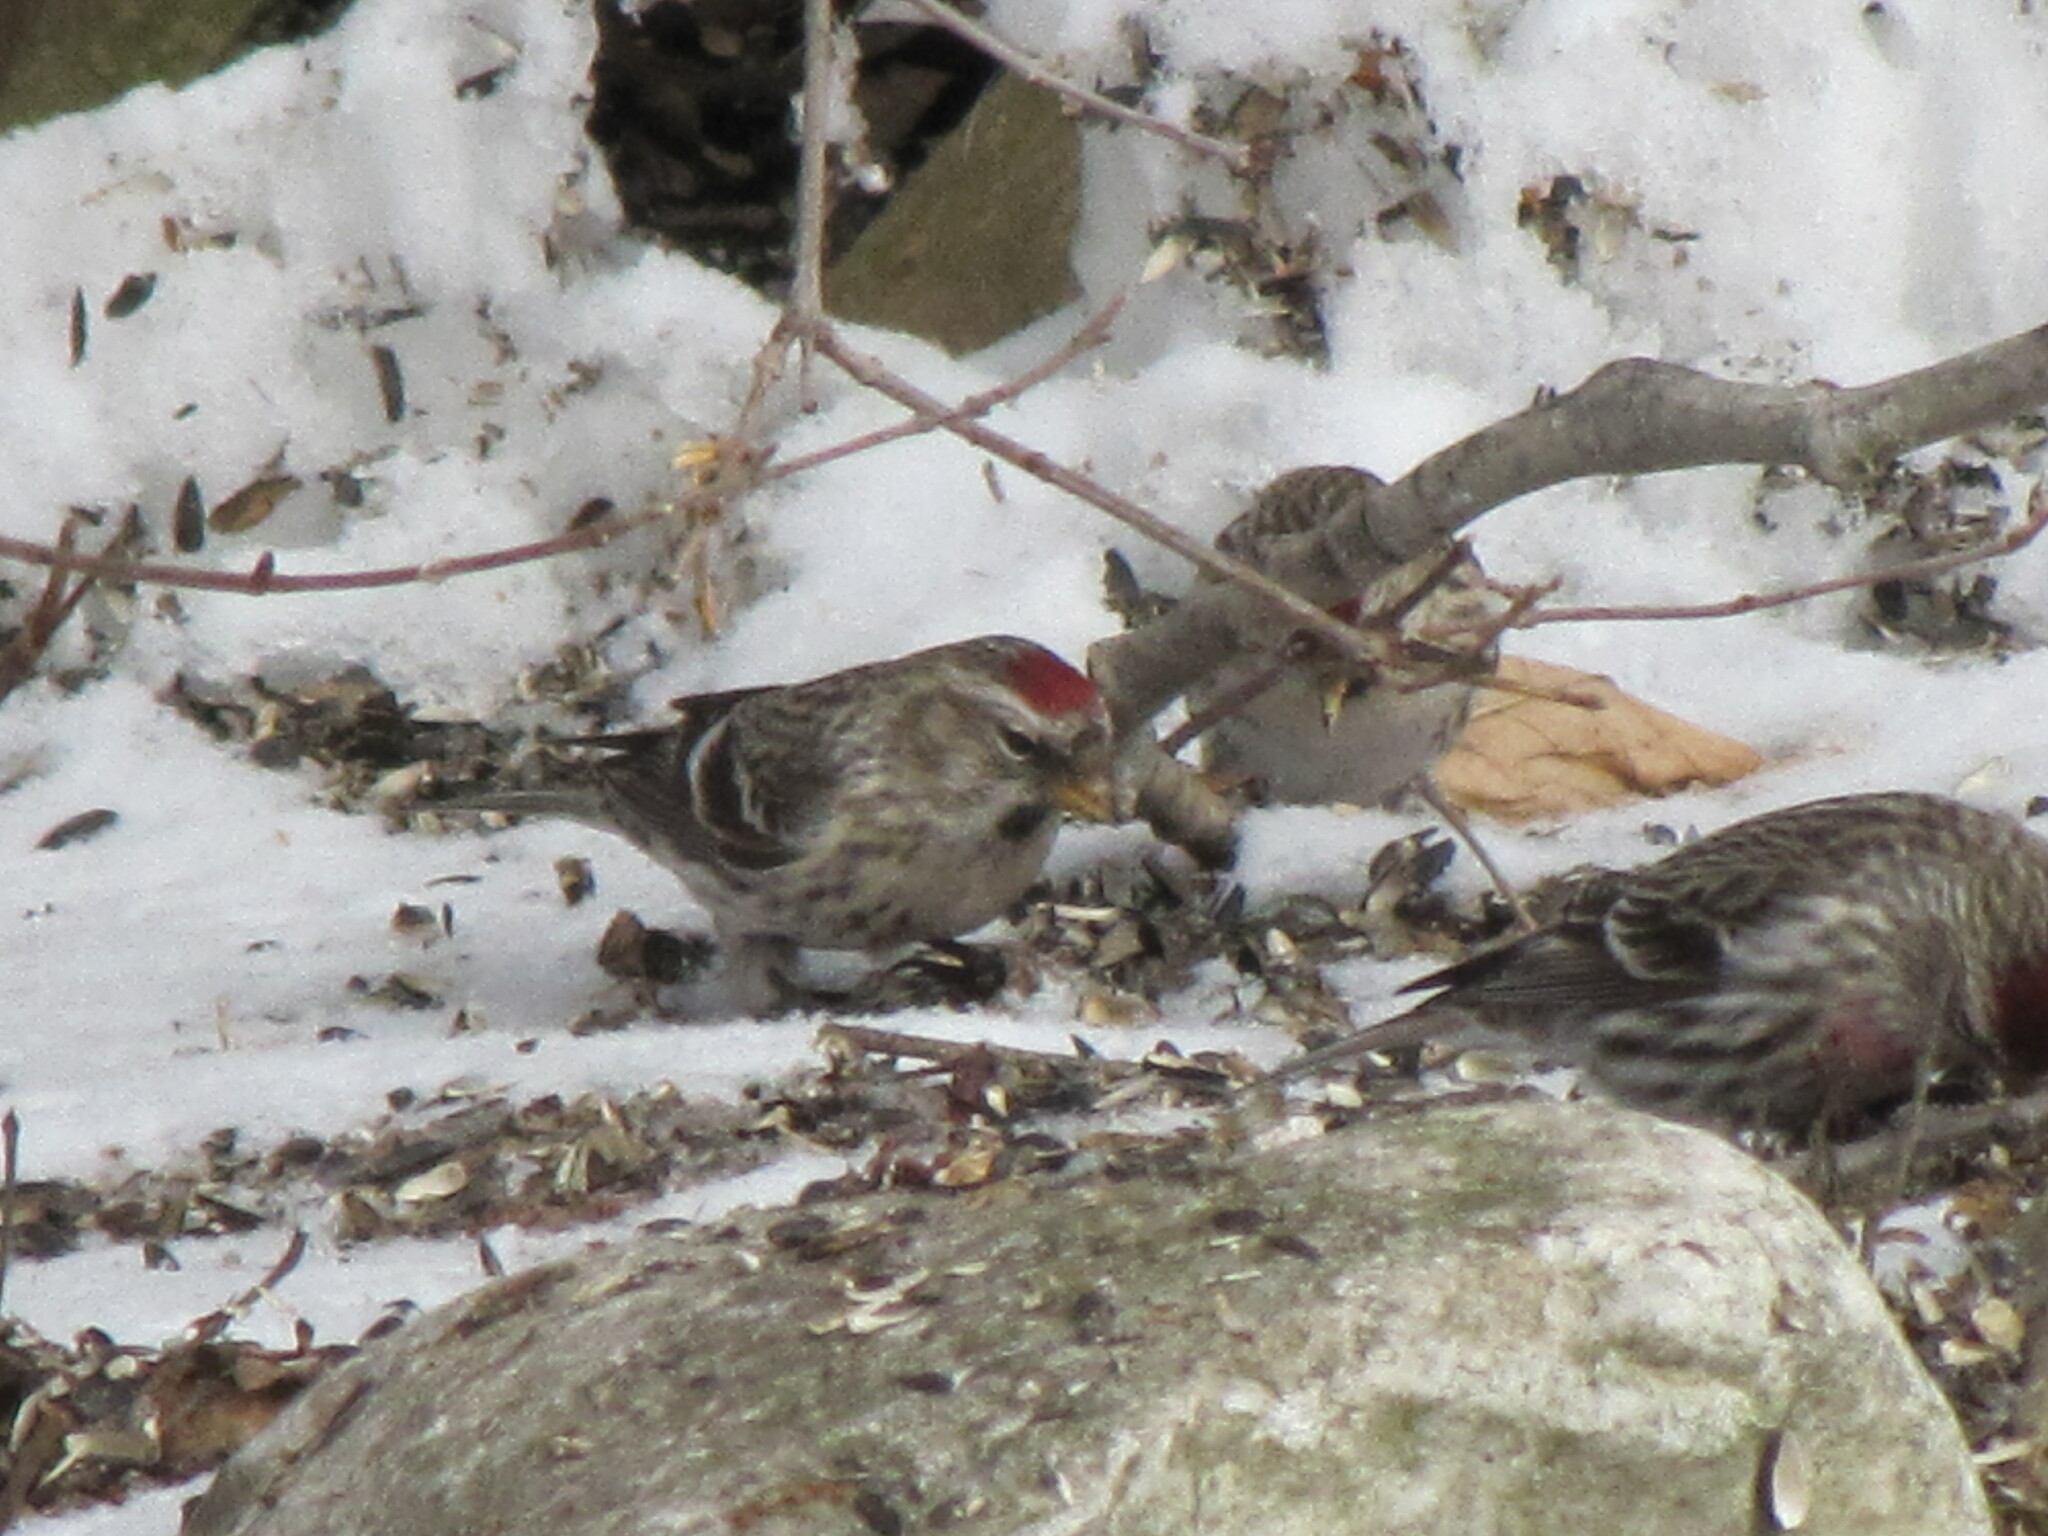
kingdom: Animalia
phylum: Chordata
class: Aves
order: Passeriformes
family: Fringillidae
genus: Acanthis
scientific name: Acanthis flammea
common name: Common redpoll
